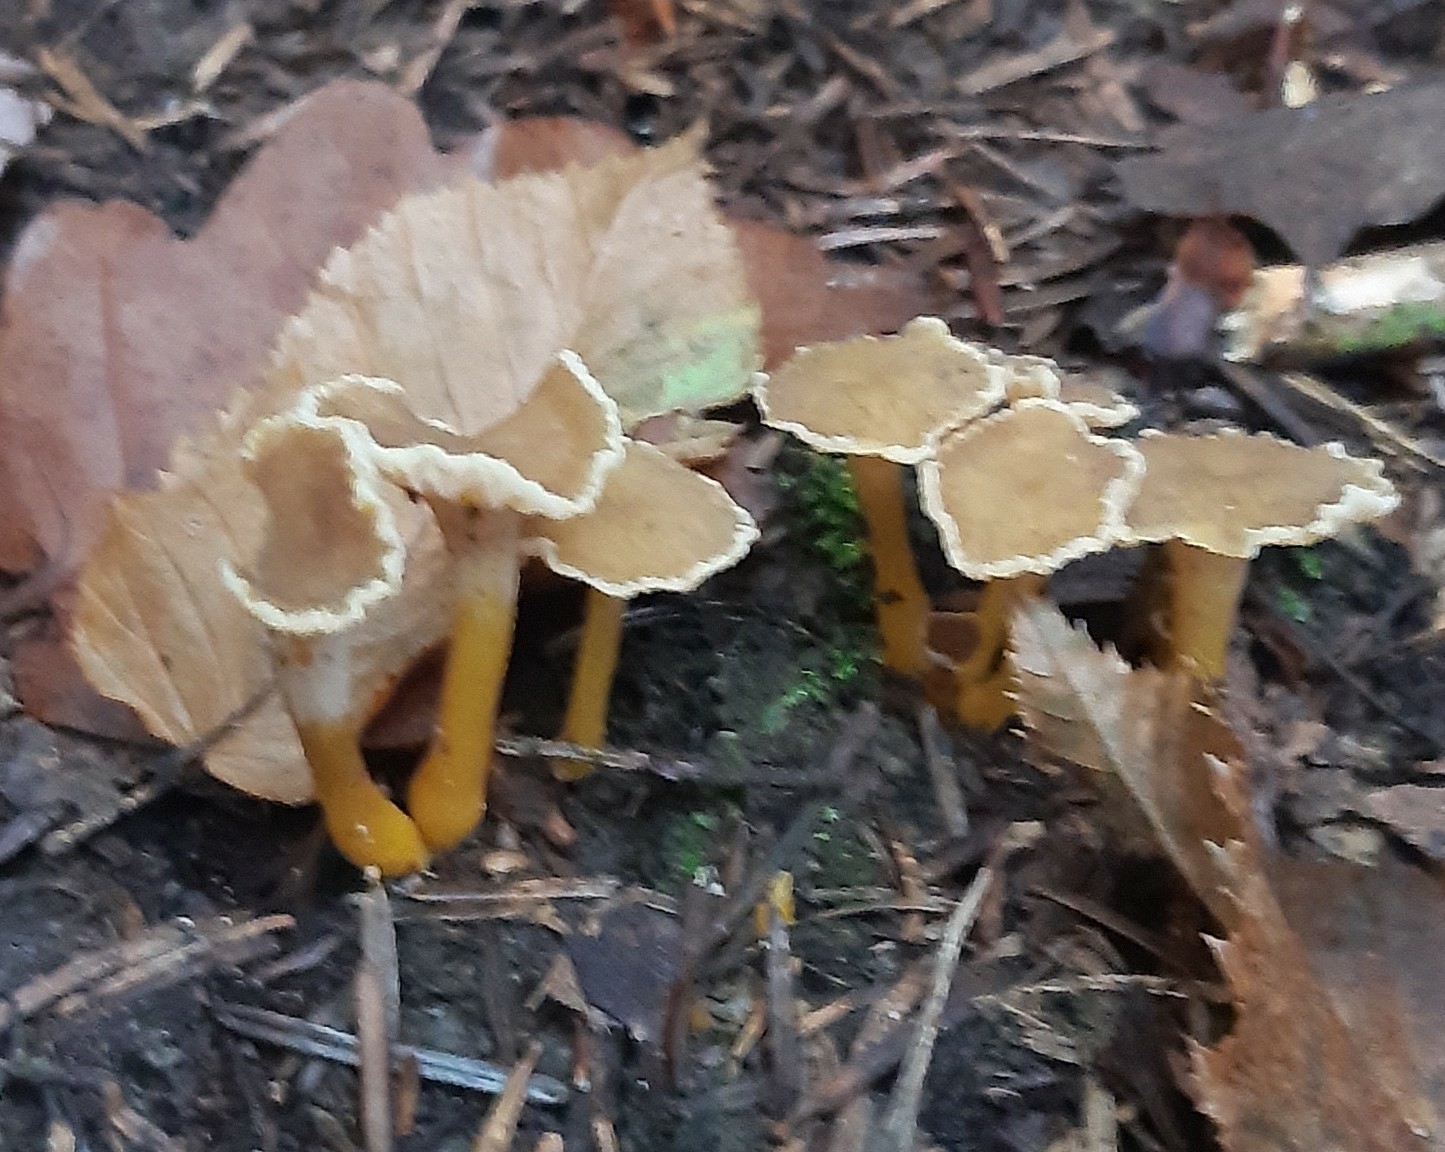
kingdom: Fungi
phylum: Basidiomycota
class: Agaricomycetes
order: Cantharellales
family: Hydnaceae
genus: Craterellus
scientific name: Craterellus tubaeformis
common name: Yellowfoot
